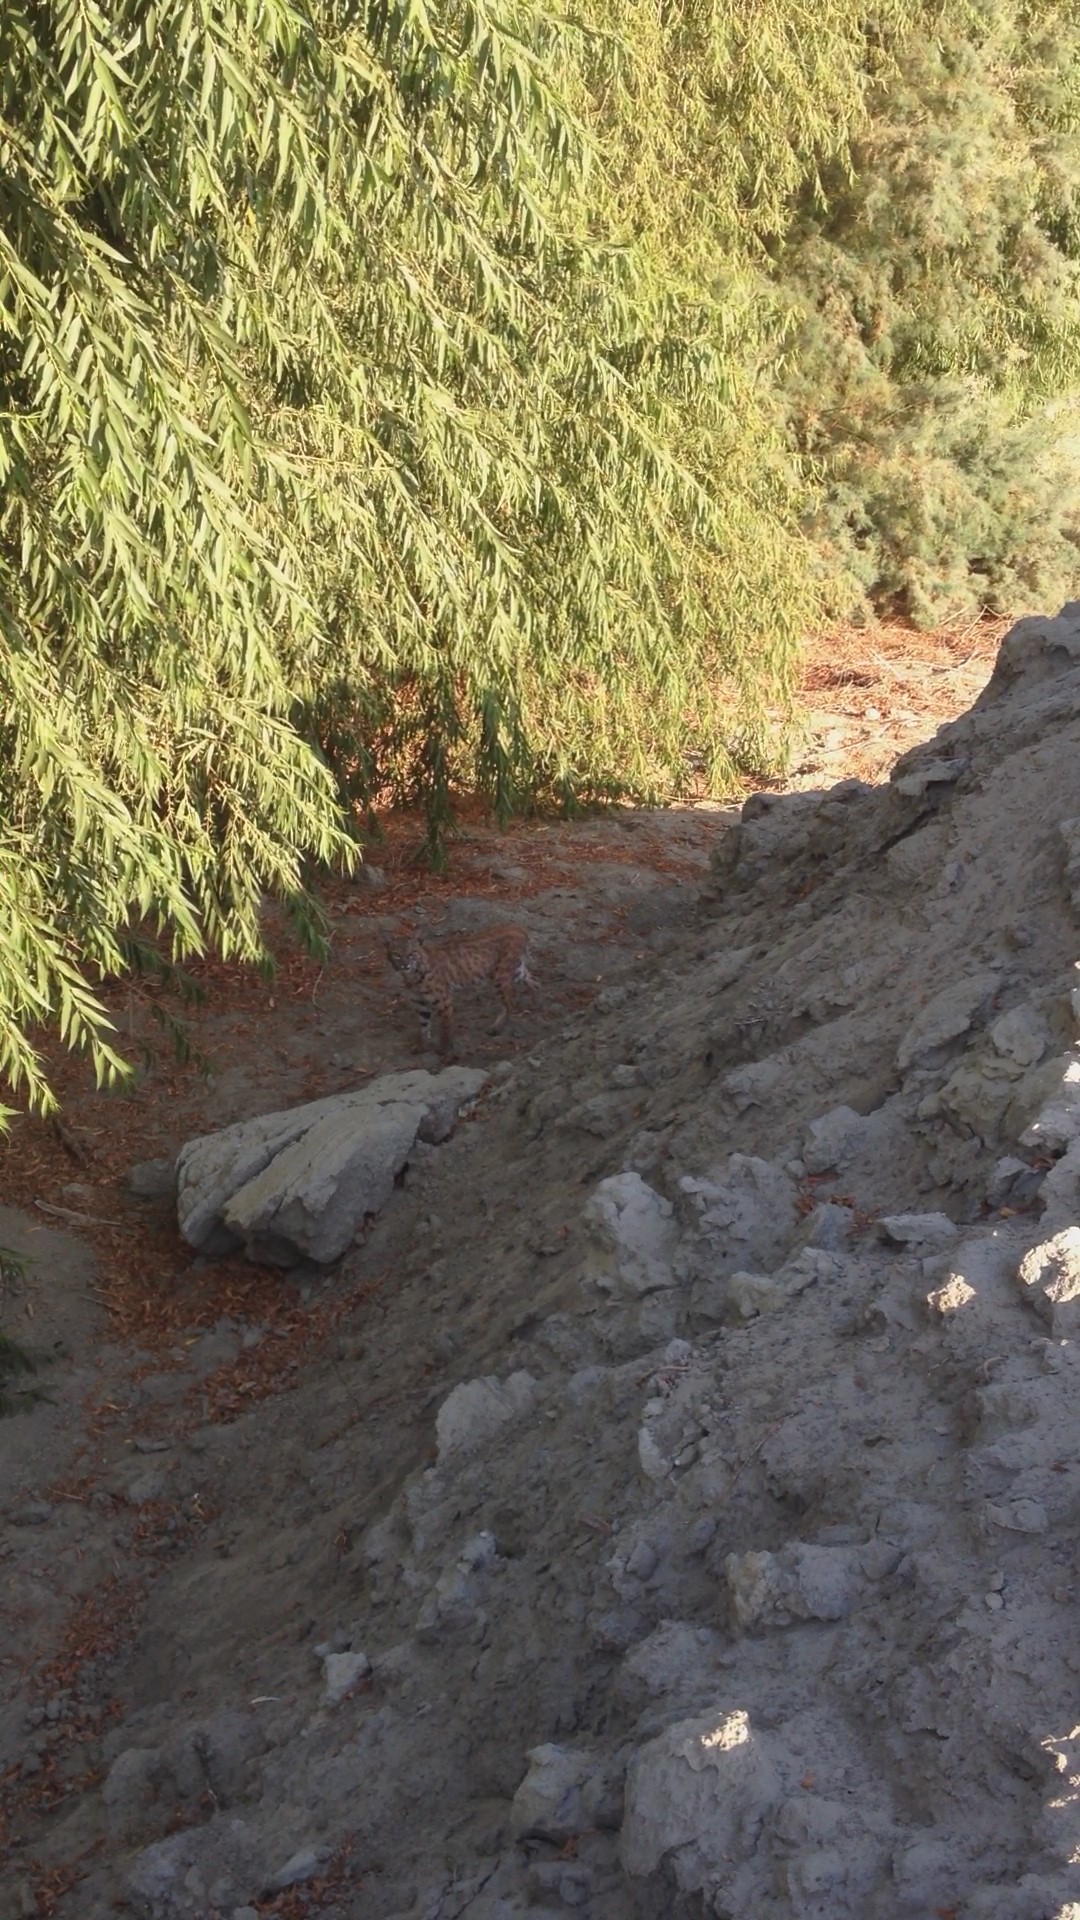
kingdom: Animalia
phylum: Chordata
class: Mammalia
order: Carnivora
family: Felidae
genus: Lynx
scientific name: Lynx rufus
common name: Bobcat
